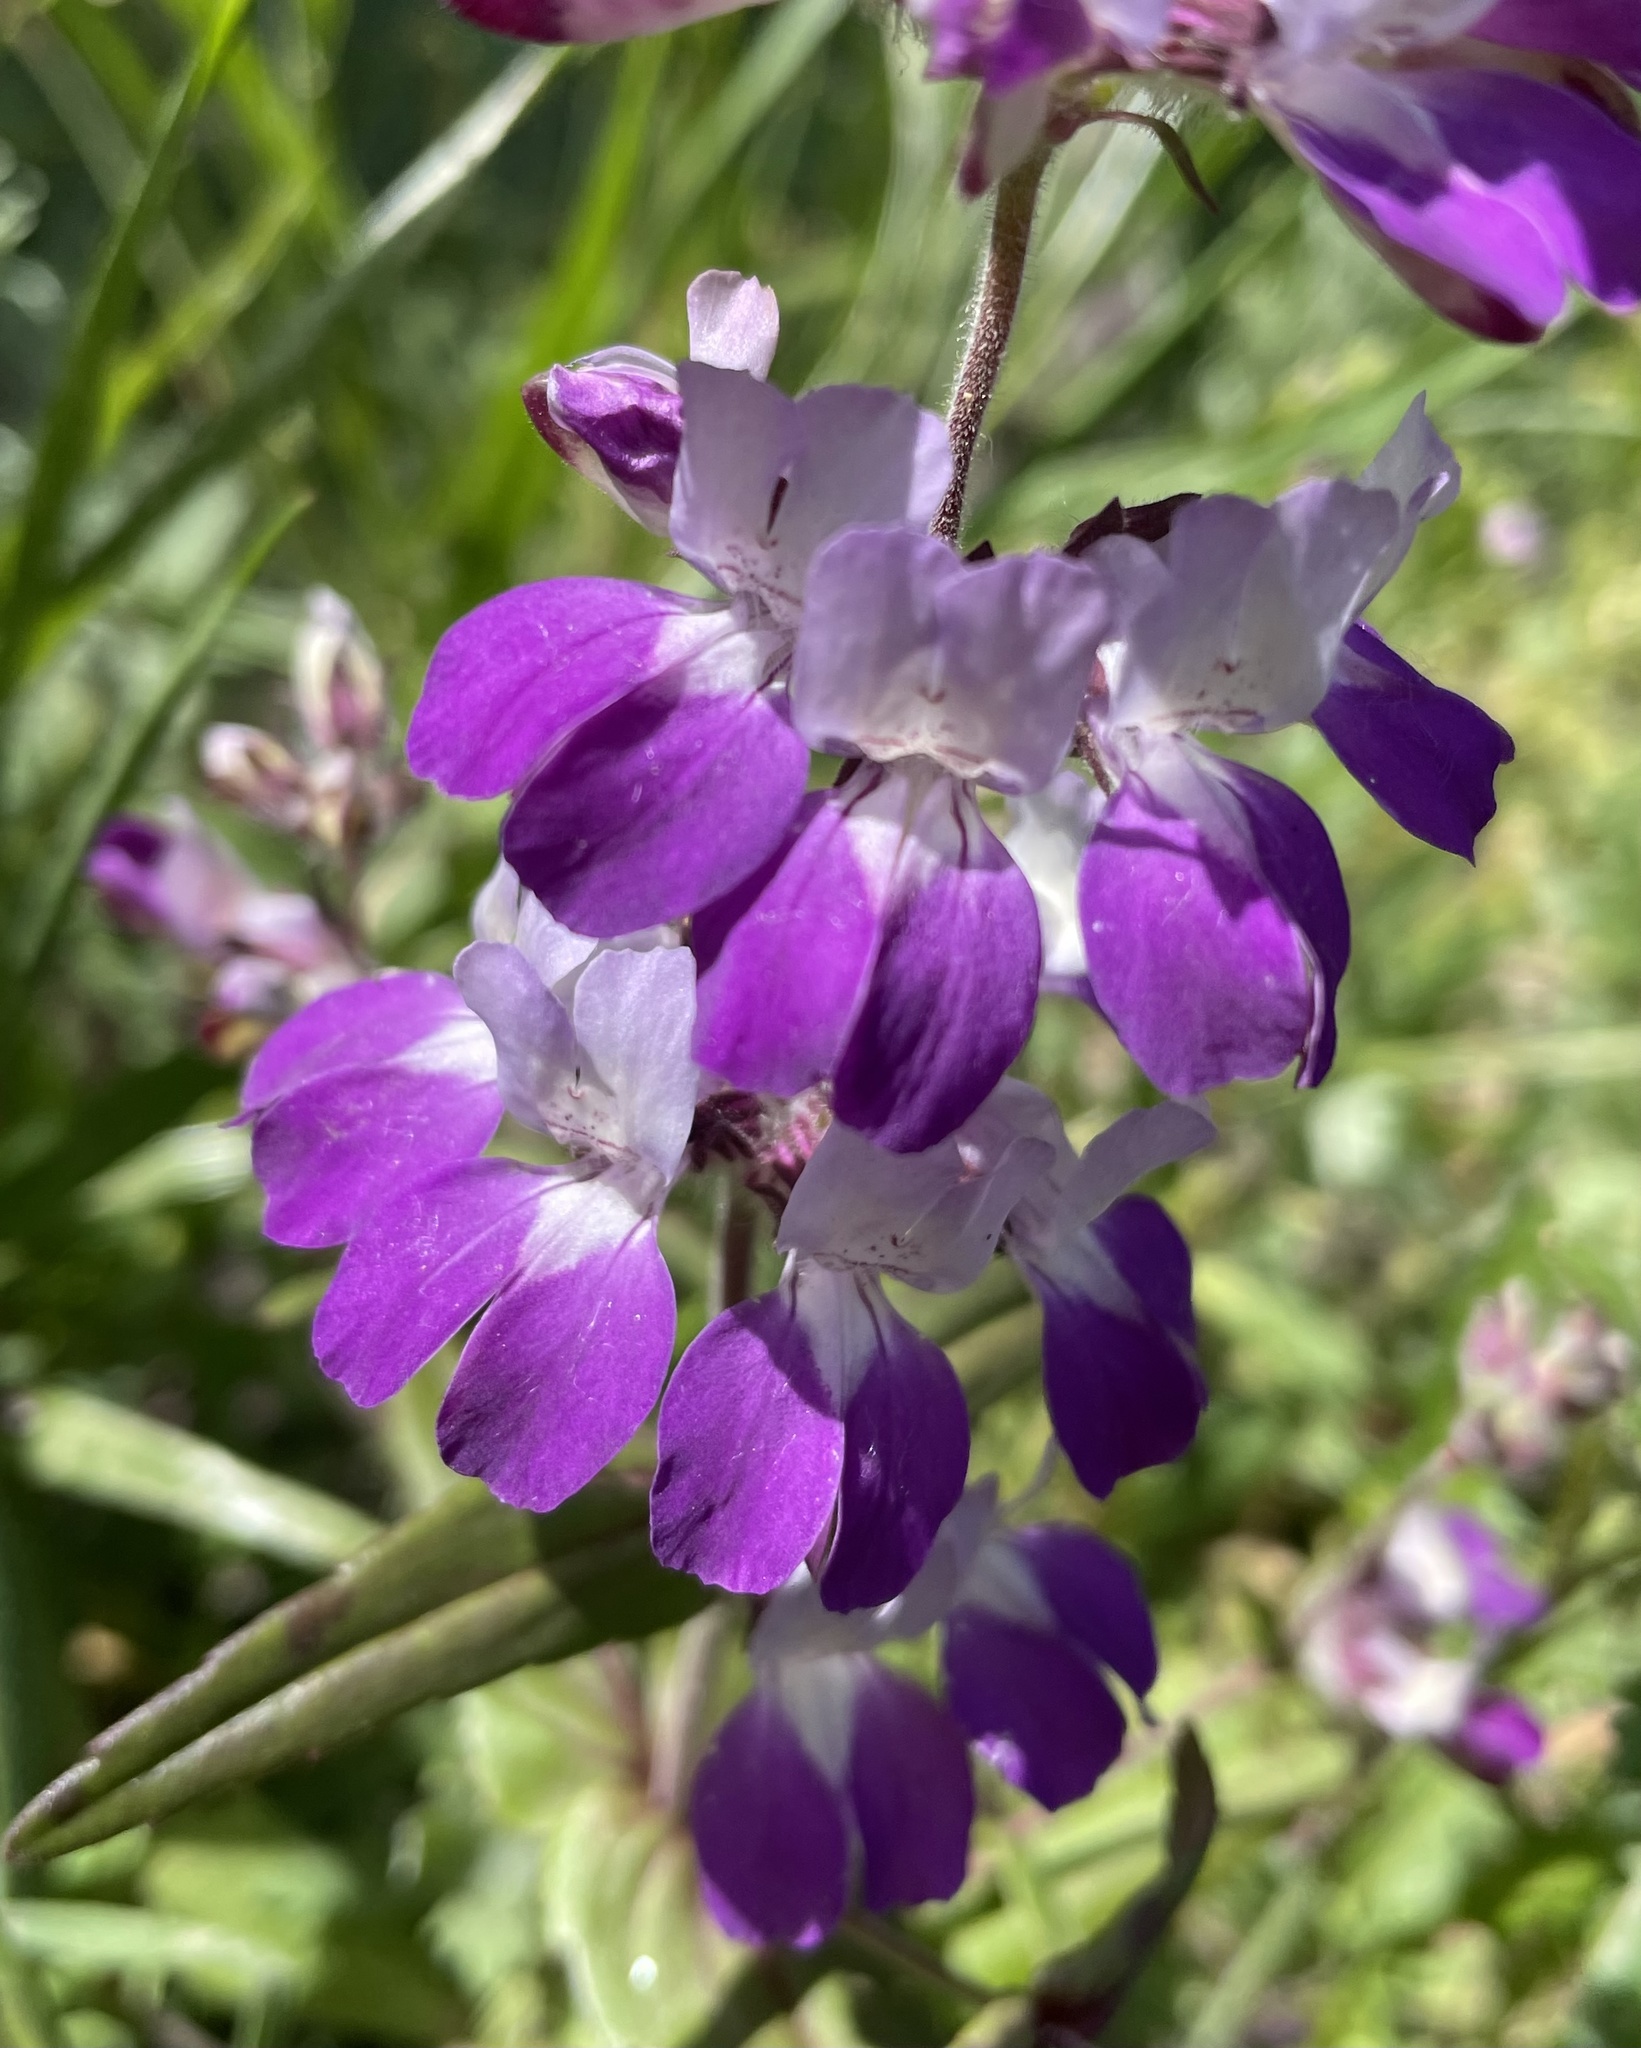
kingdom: Plantae
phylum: Tracheophyta
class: Magnoliopsida
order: Lamiales
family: Plantaginaceae
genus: Collinsia
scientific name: Collinsia heterophylla
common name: Chinese-houses
